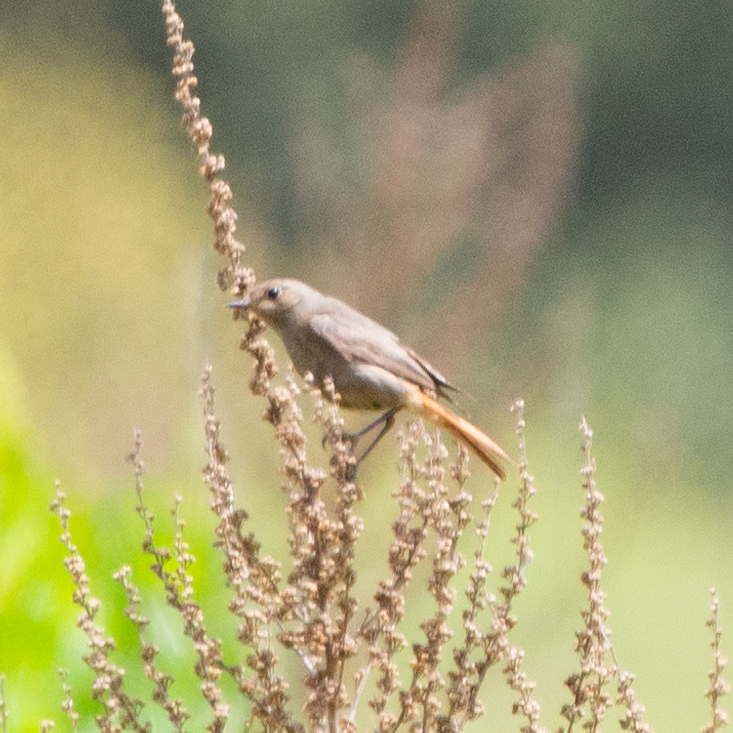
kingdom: Animalia
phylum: Chordata
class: Aves
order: Passeriformes
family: Muscicapidae
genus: Phoenicurus
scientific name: Phoenicurus ochruros
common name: Black redstart
